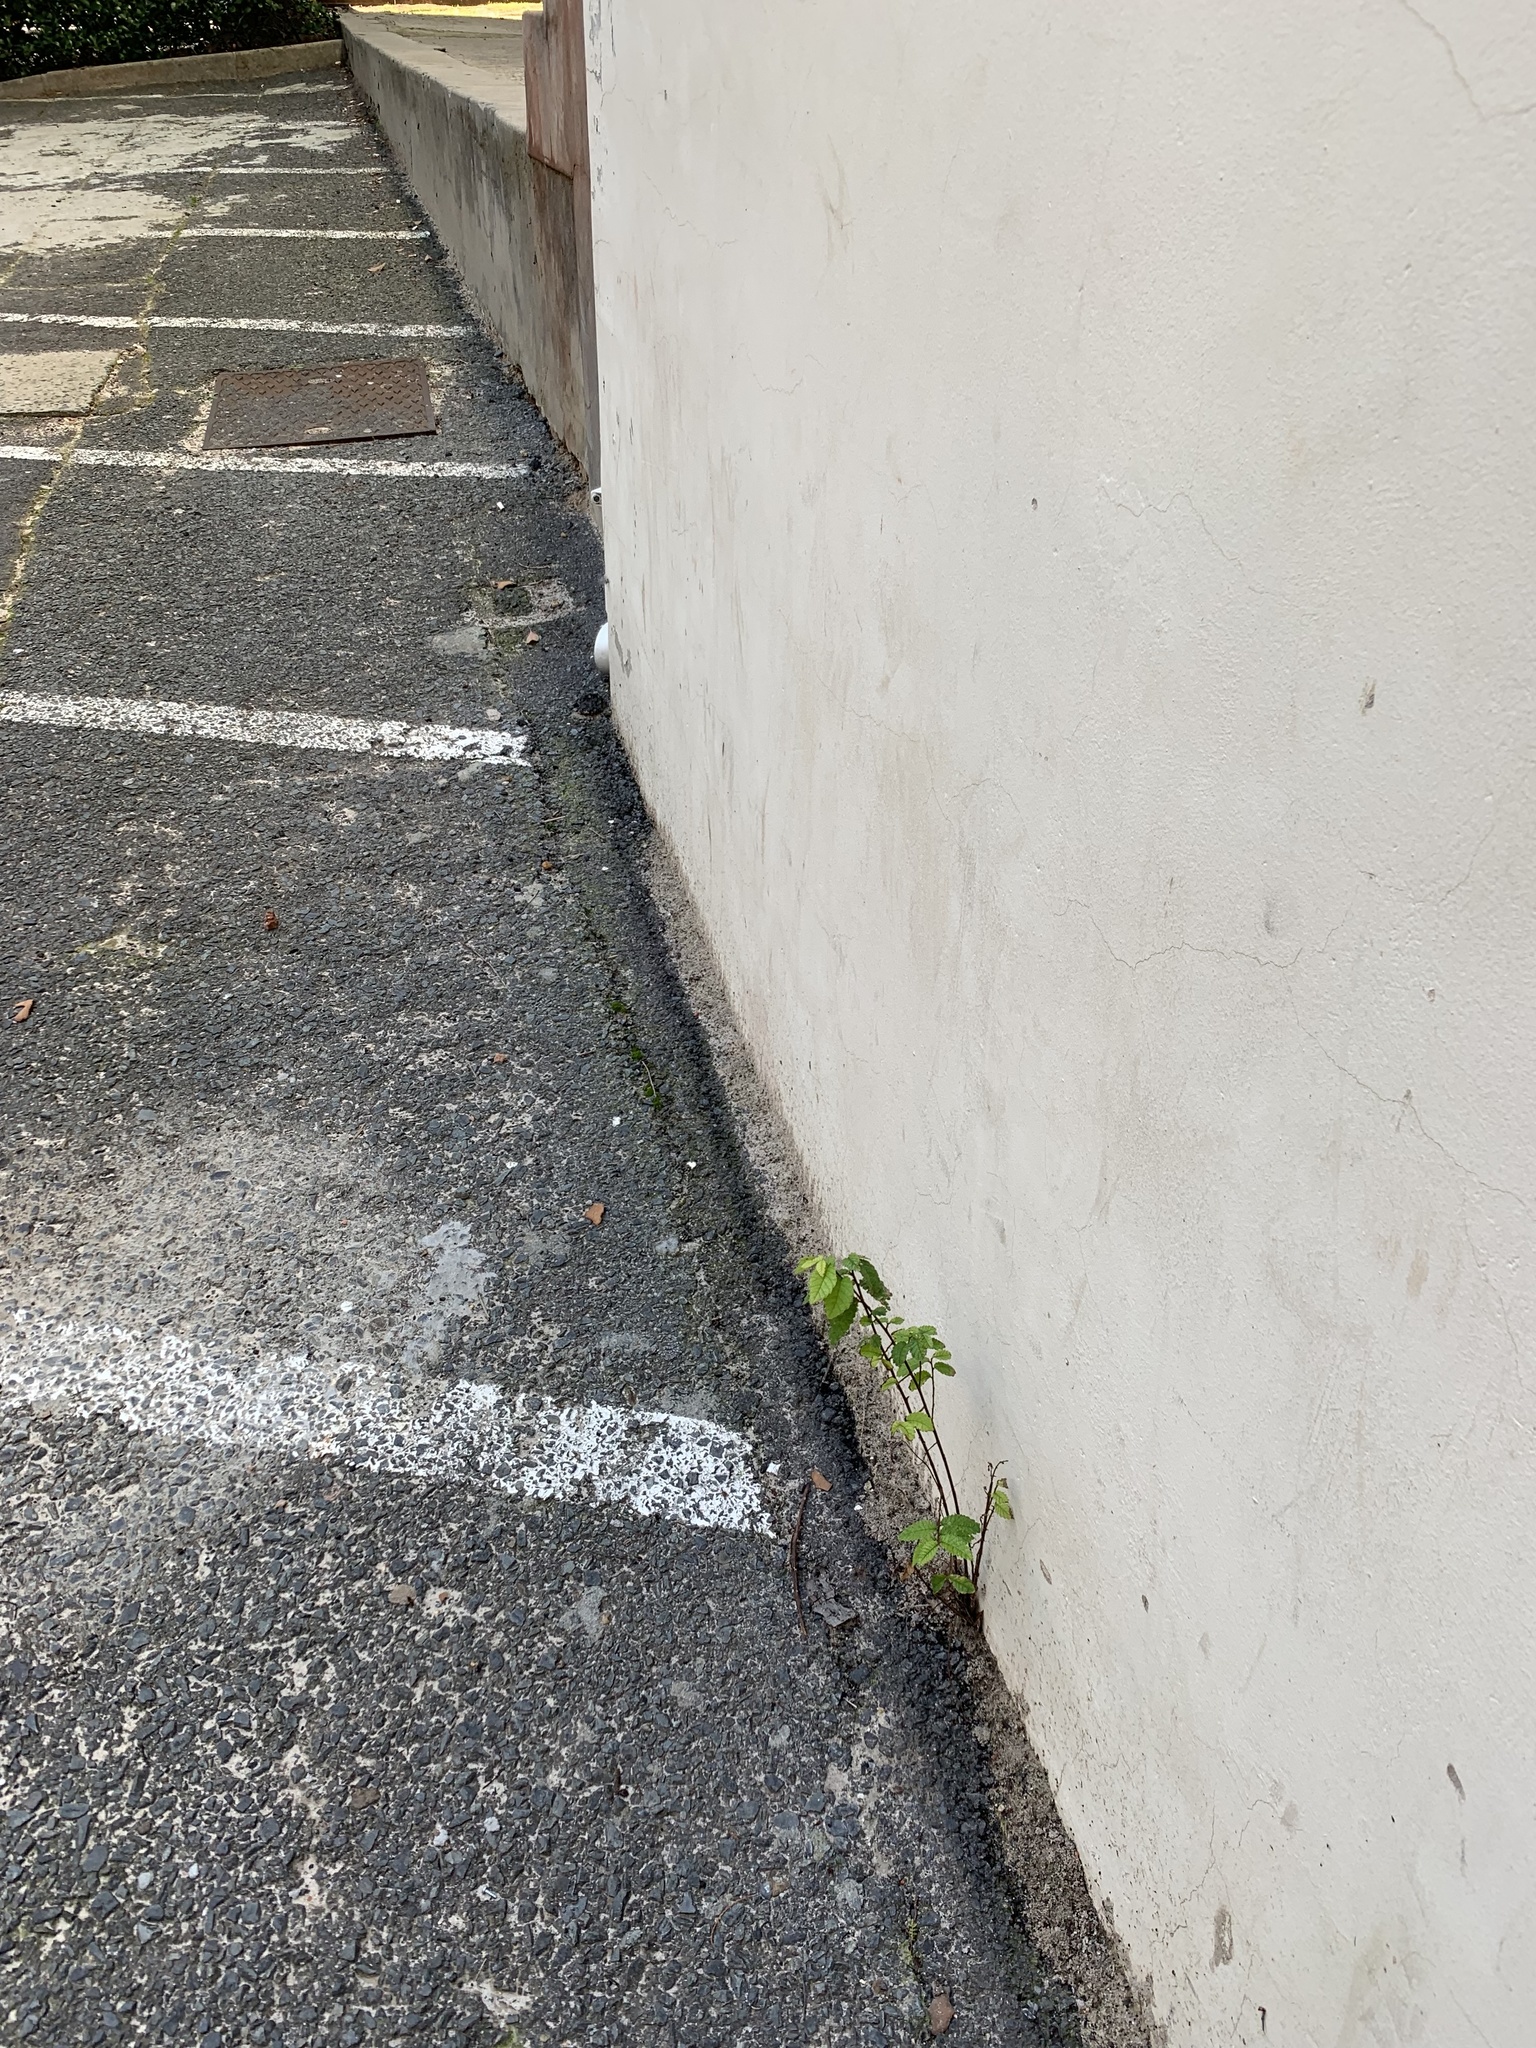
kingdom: Plantae
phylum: Tracheophyta
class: Magnoliopsida
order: Rosales
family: Ulmaceae
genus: Ulmus
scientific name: Ulmus minor
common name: Small-leaved elm
